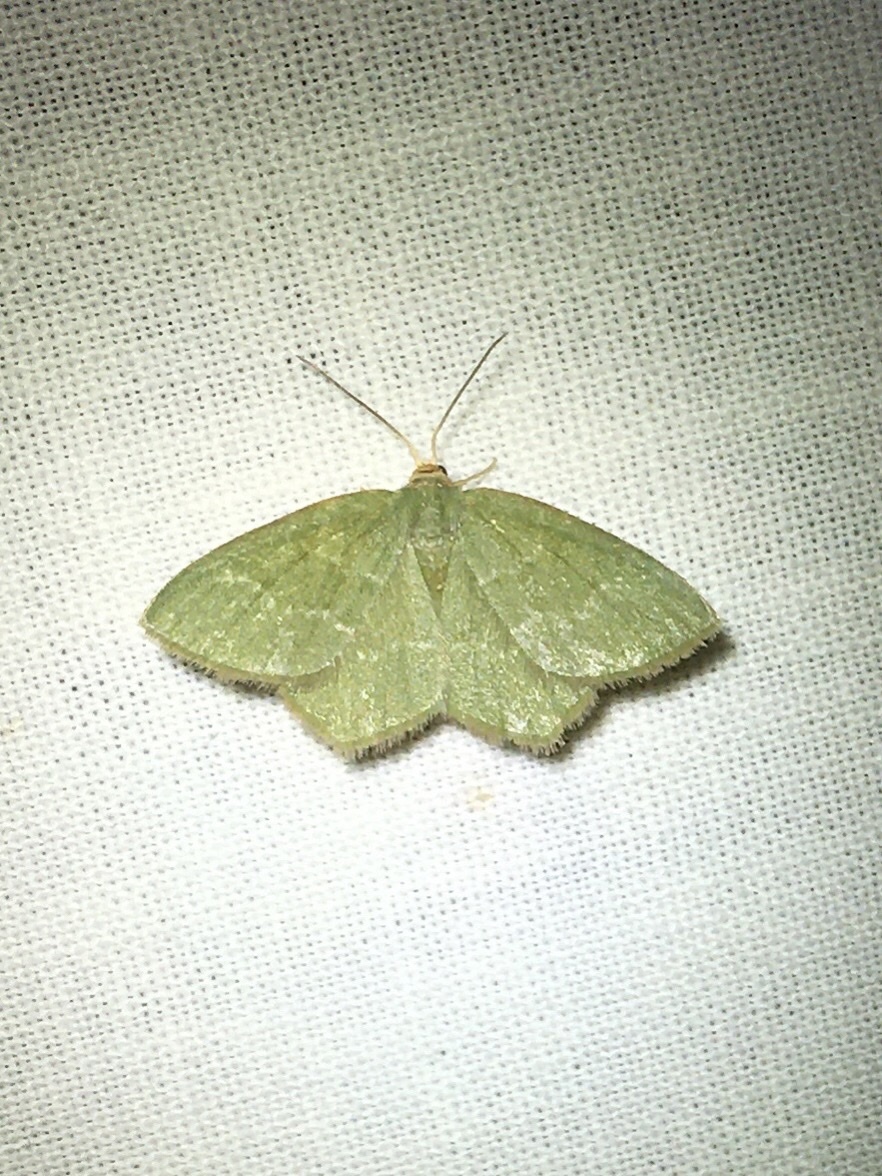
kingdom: Animalia
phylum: Arthropoda
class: Insecta
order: Lepidoptera
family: Geometridae
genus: Thalera
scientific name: Thalera pistasciaria
